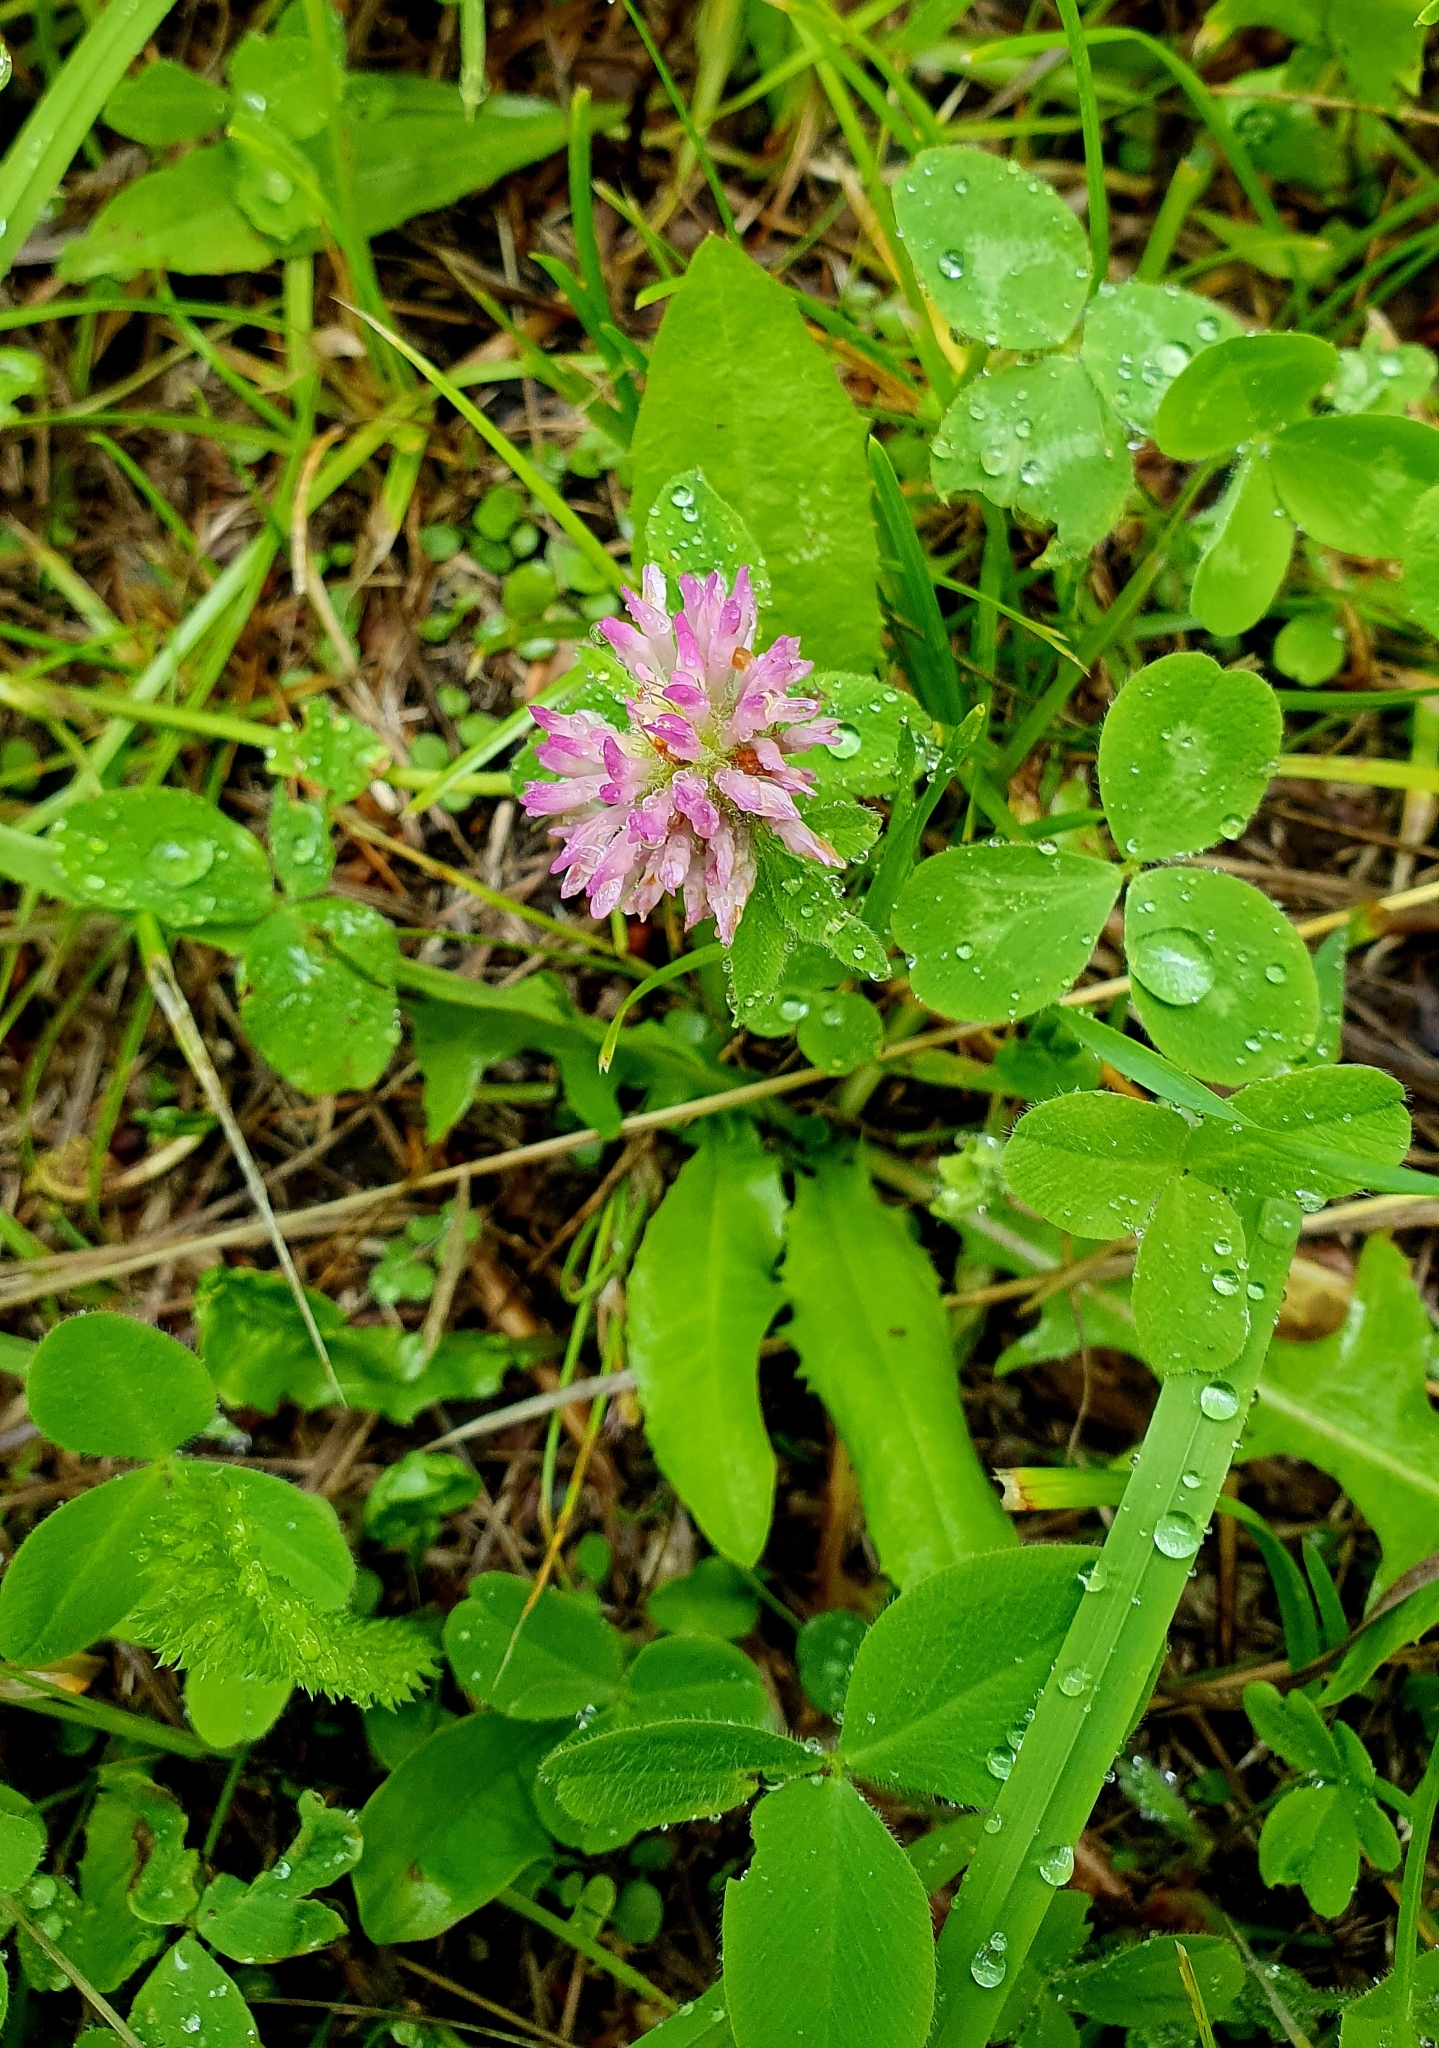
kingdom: Plantae
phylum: Tracheophyta
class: Magnoliopsida
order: Fabales
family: Fabaceae
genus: Trifolium
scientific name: Trifolium pratense
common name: Red clover
